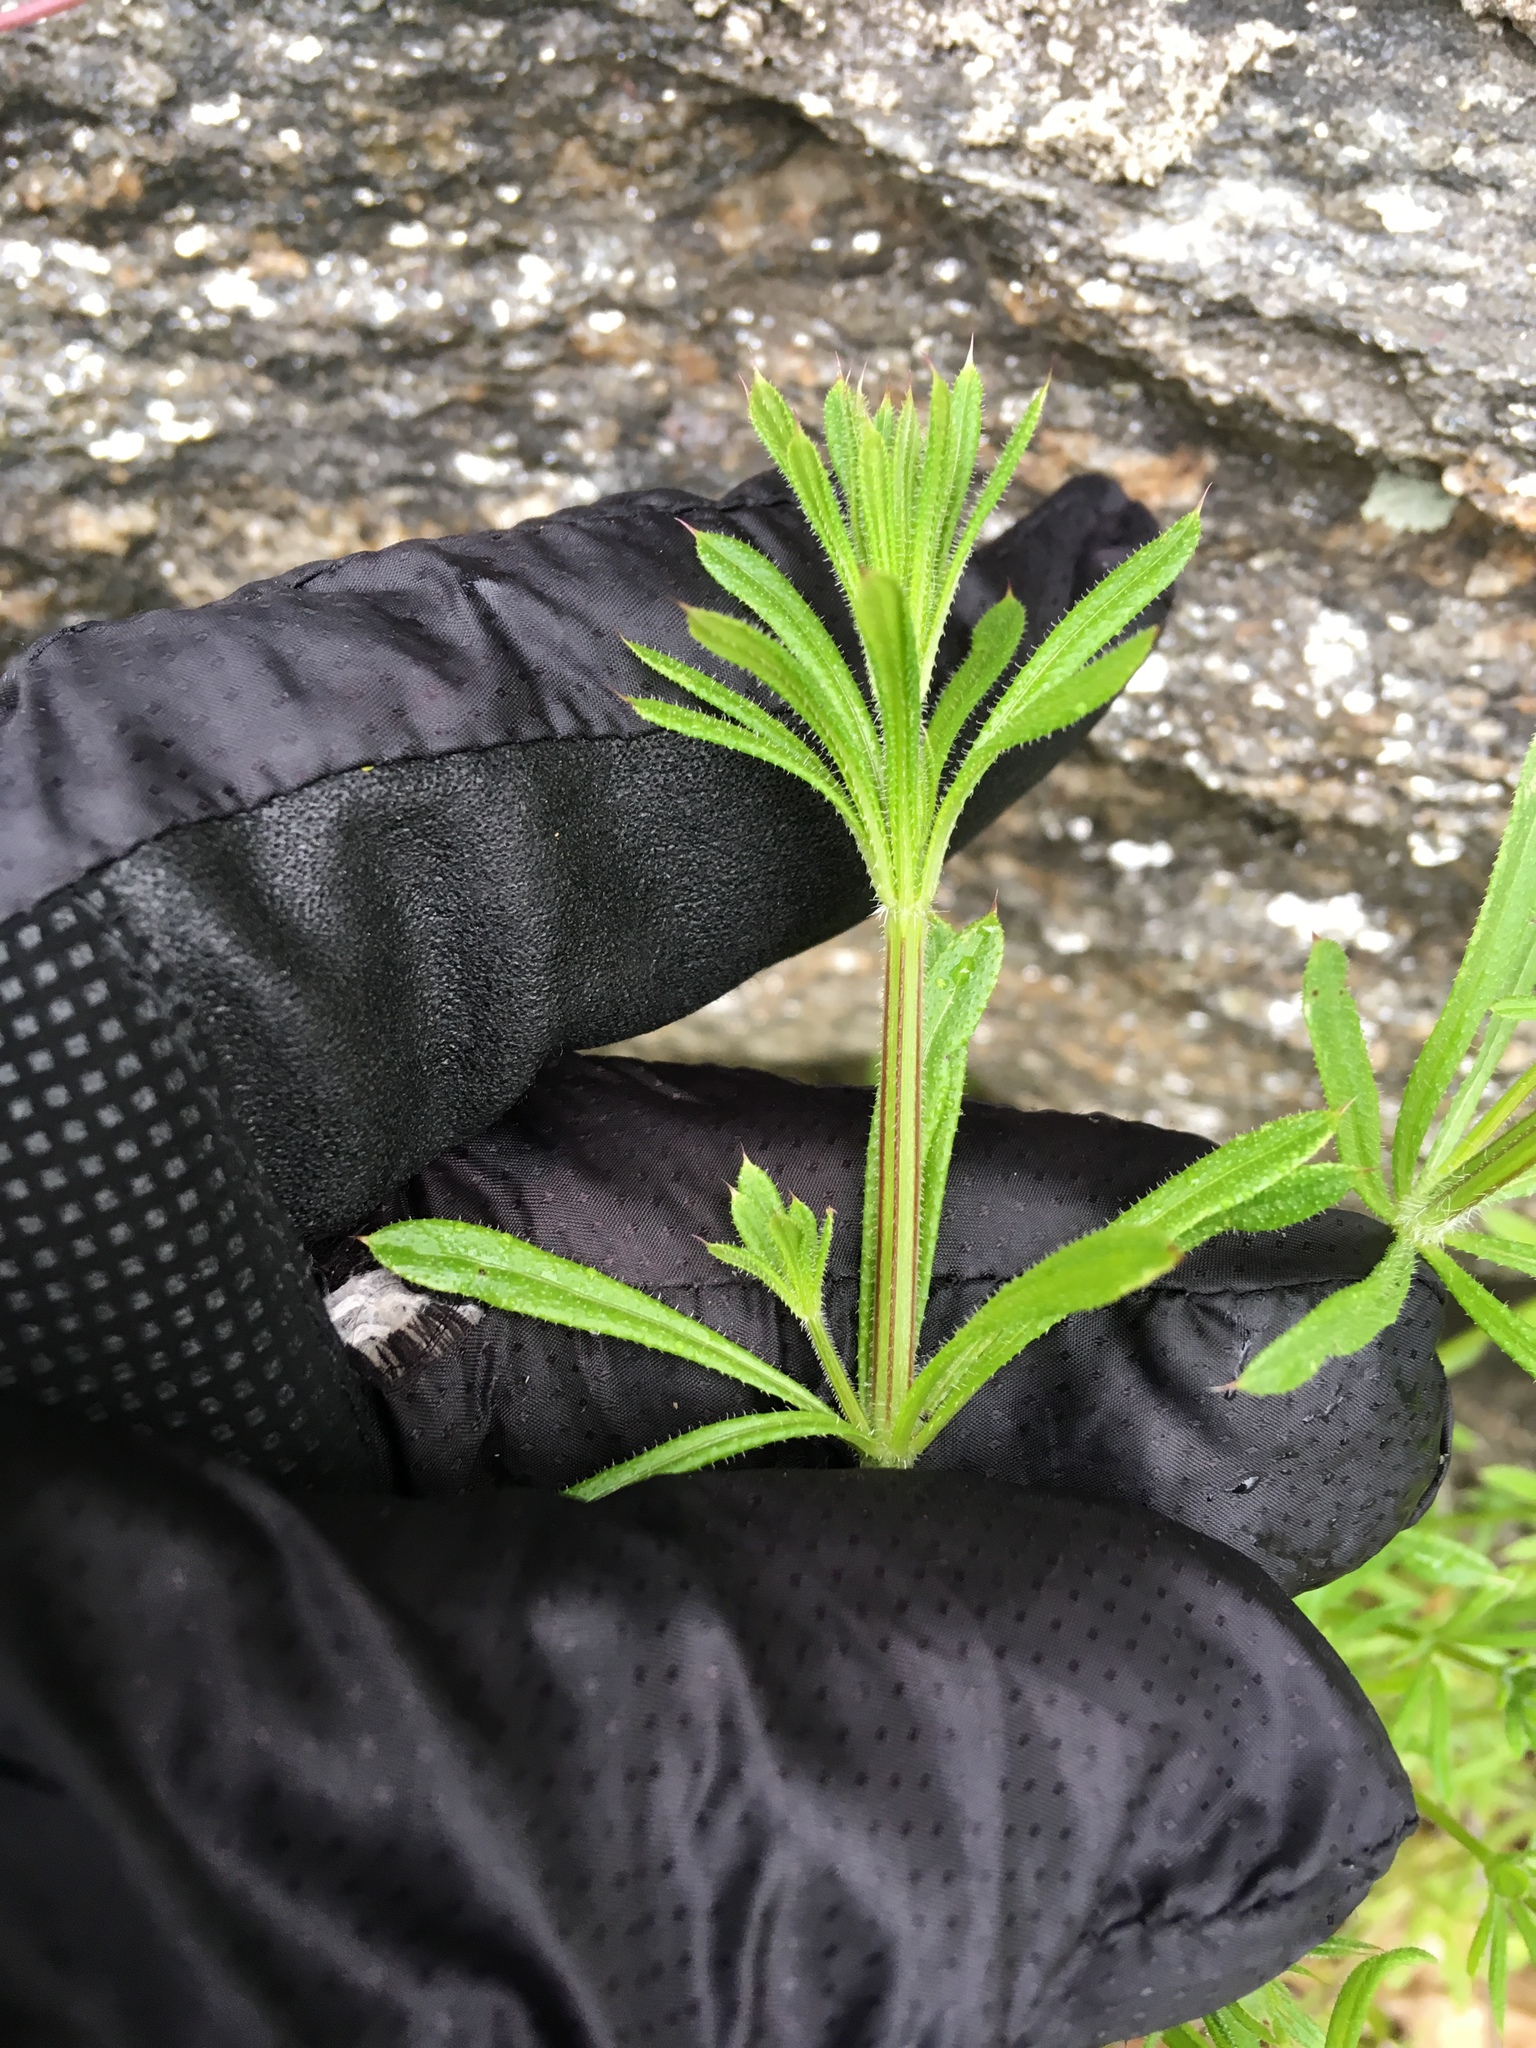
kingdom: Plantae
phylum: Tracheophyta
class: Magnoliopsida
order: Gentianales
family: Rubiaceae
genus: Galium
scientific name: Galium aparine
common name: Cleavers
